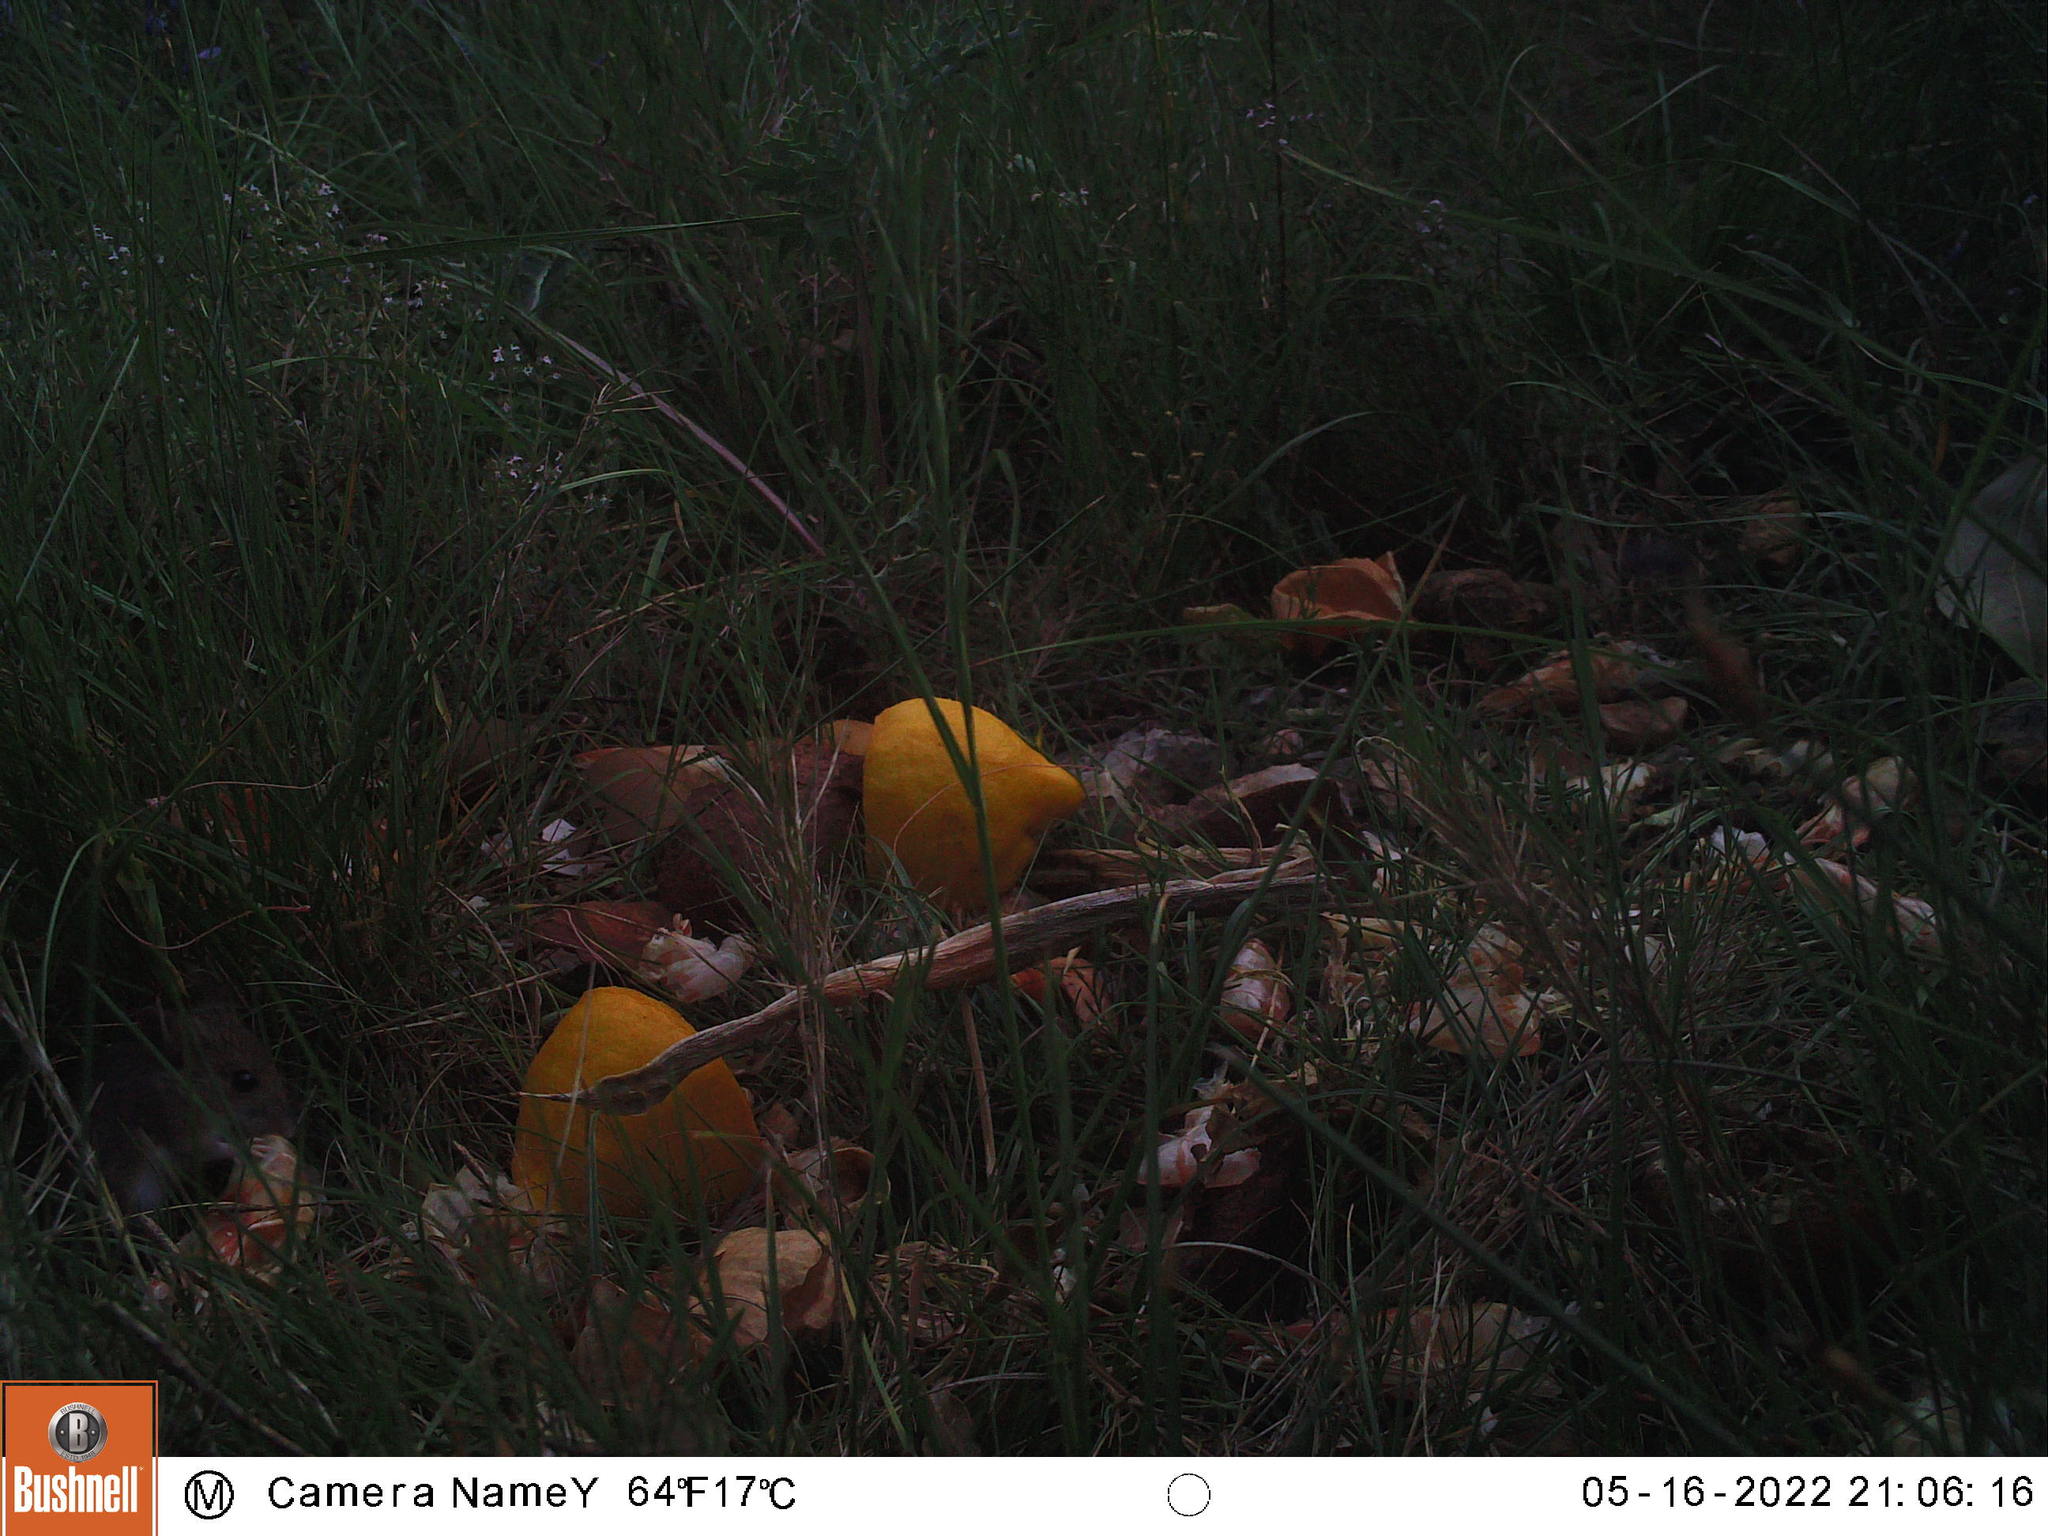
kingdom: Animalia
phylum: Chordata
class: Mammalia
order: Rodentia
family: Muridae
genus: Apodemus
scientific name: Apodemus sylvaticus
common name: Wood mouse
